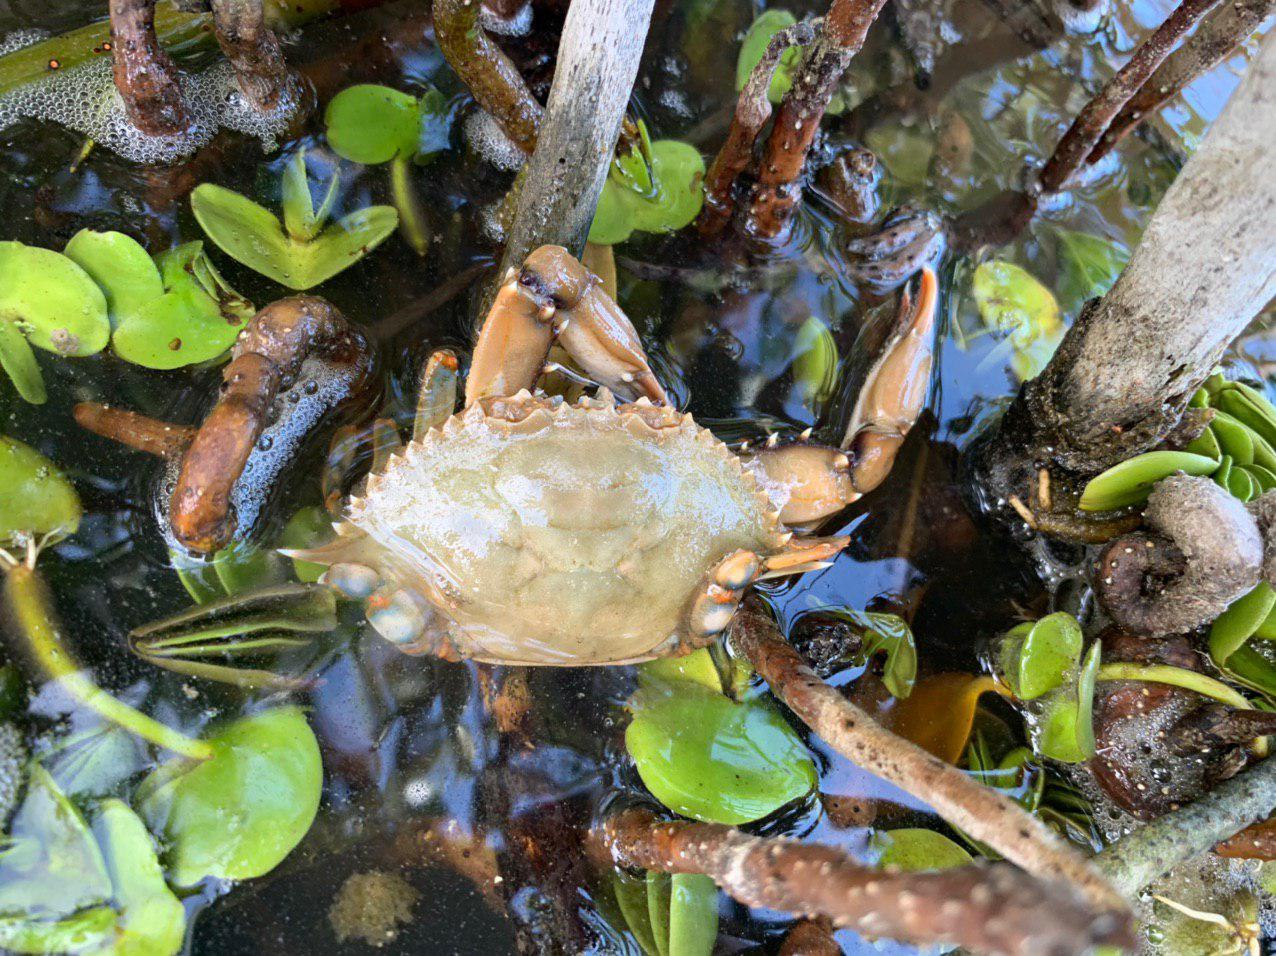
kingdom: Animalia
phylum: Arthropoda
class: Malacostraca
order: Decapoda
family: Portunidae
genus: Callinectes
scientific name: Callinectes sapidus
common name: Blue crab
